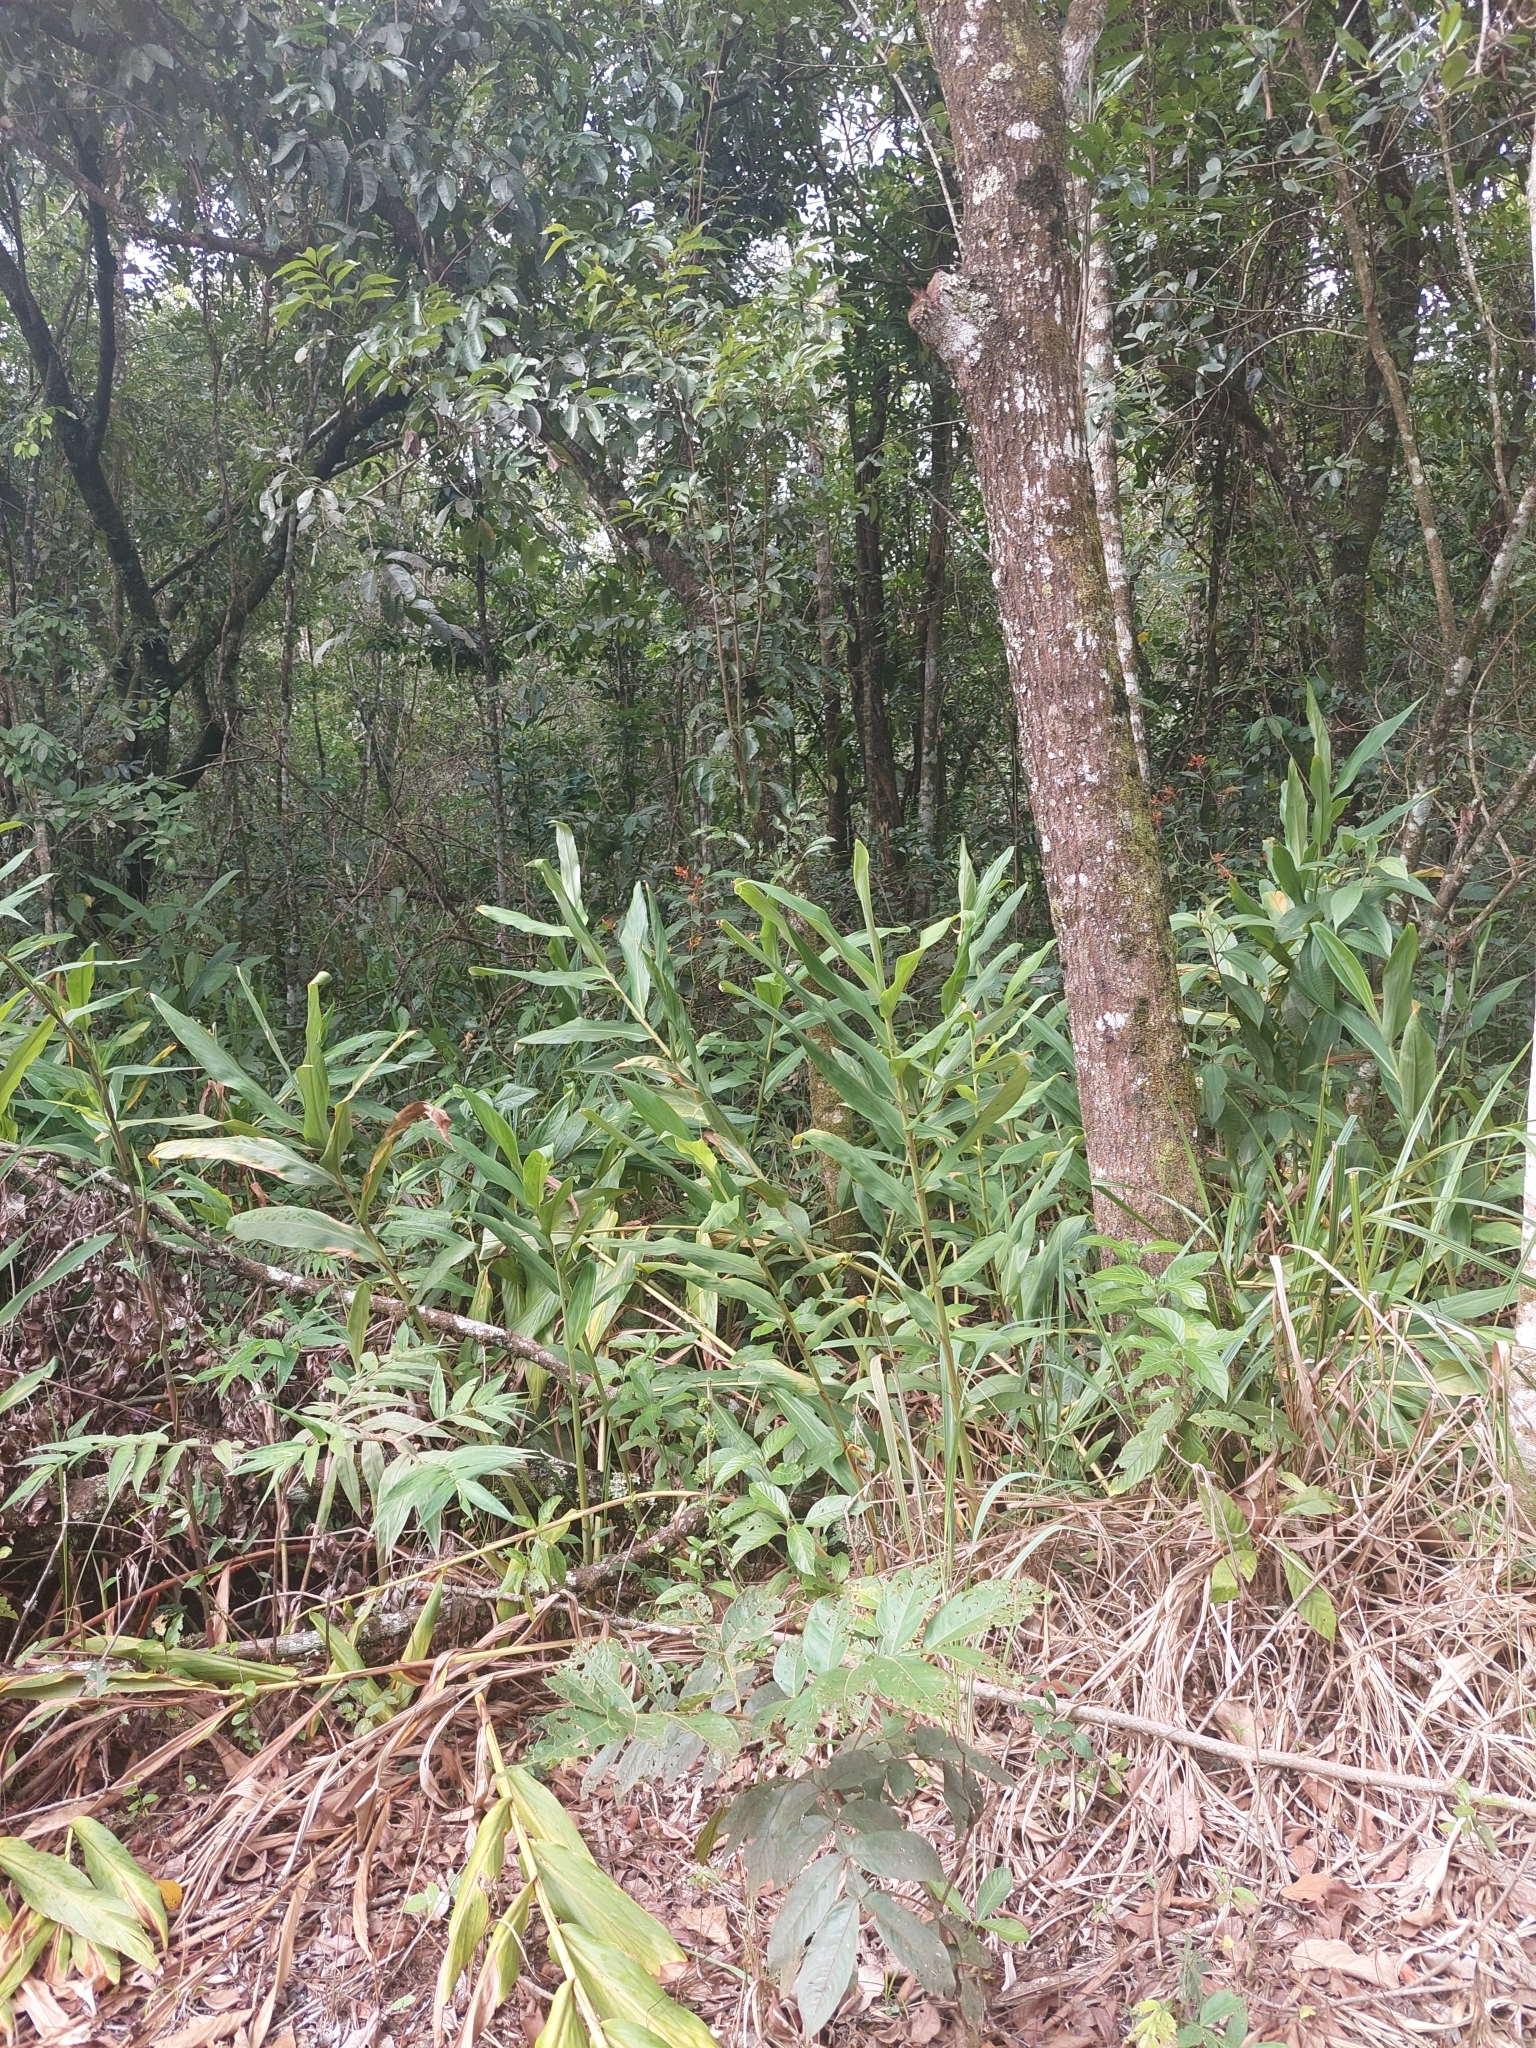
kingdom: Plantae
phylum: Tracheophyta
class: Liliopsida
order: Zingiberales
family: Zingiberaceae
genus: Hedychium
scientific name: Hedychium coronarium
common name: White garland-lily
